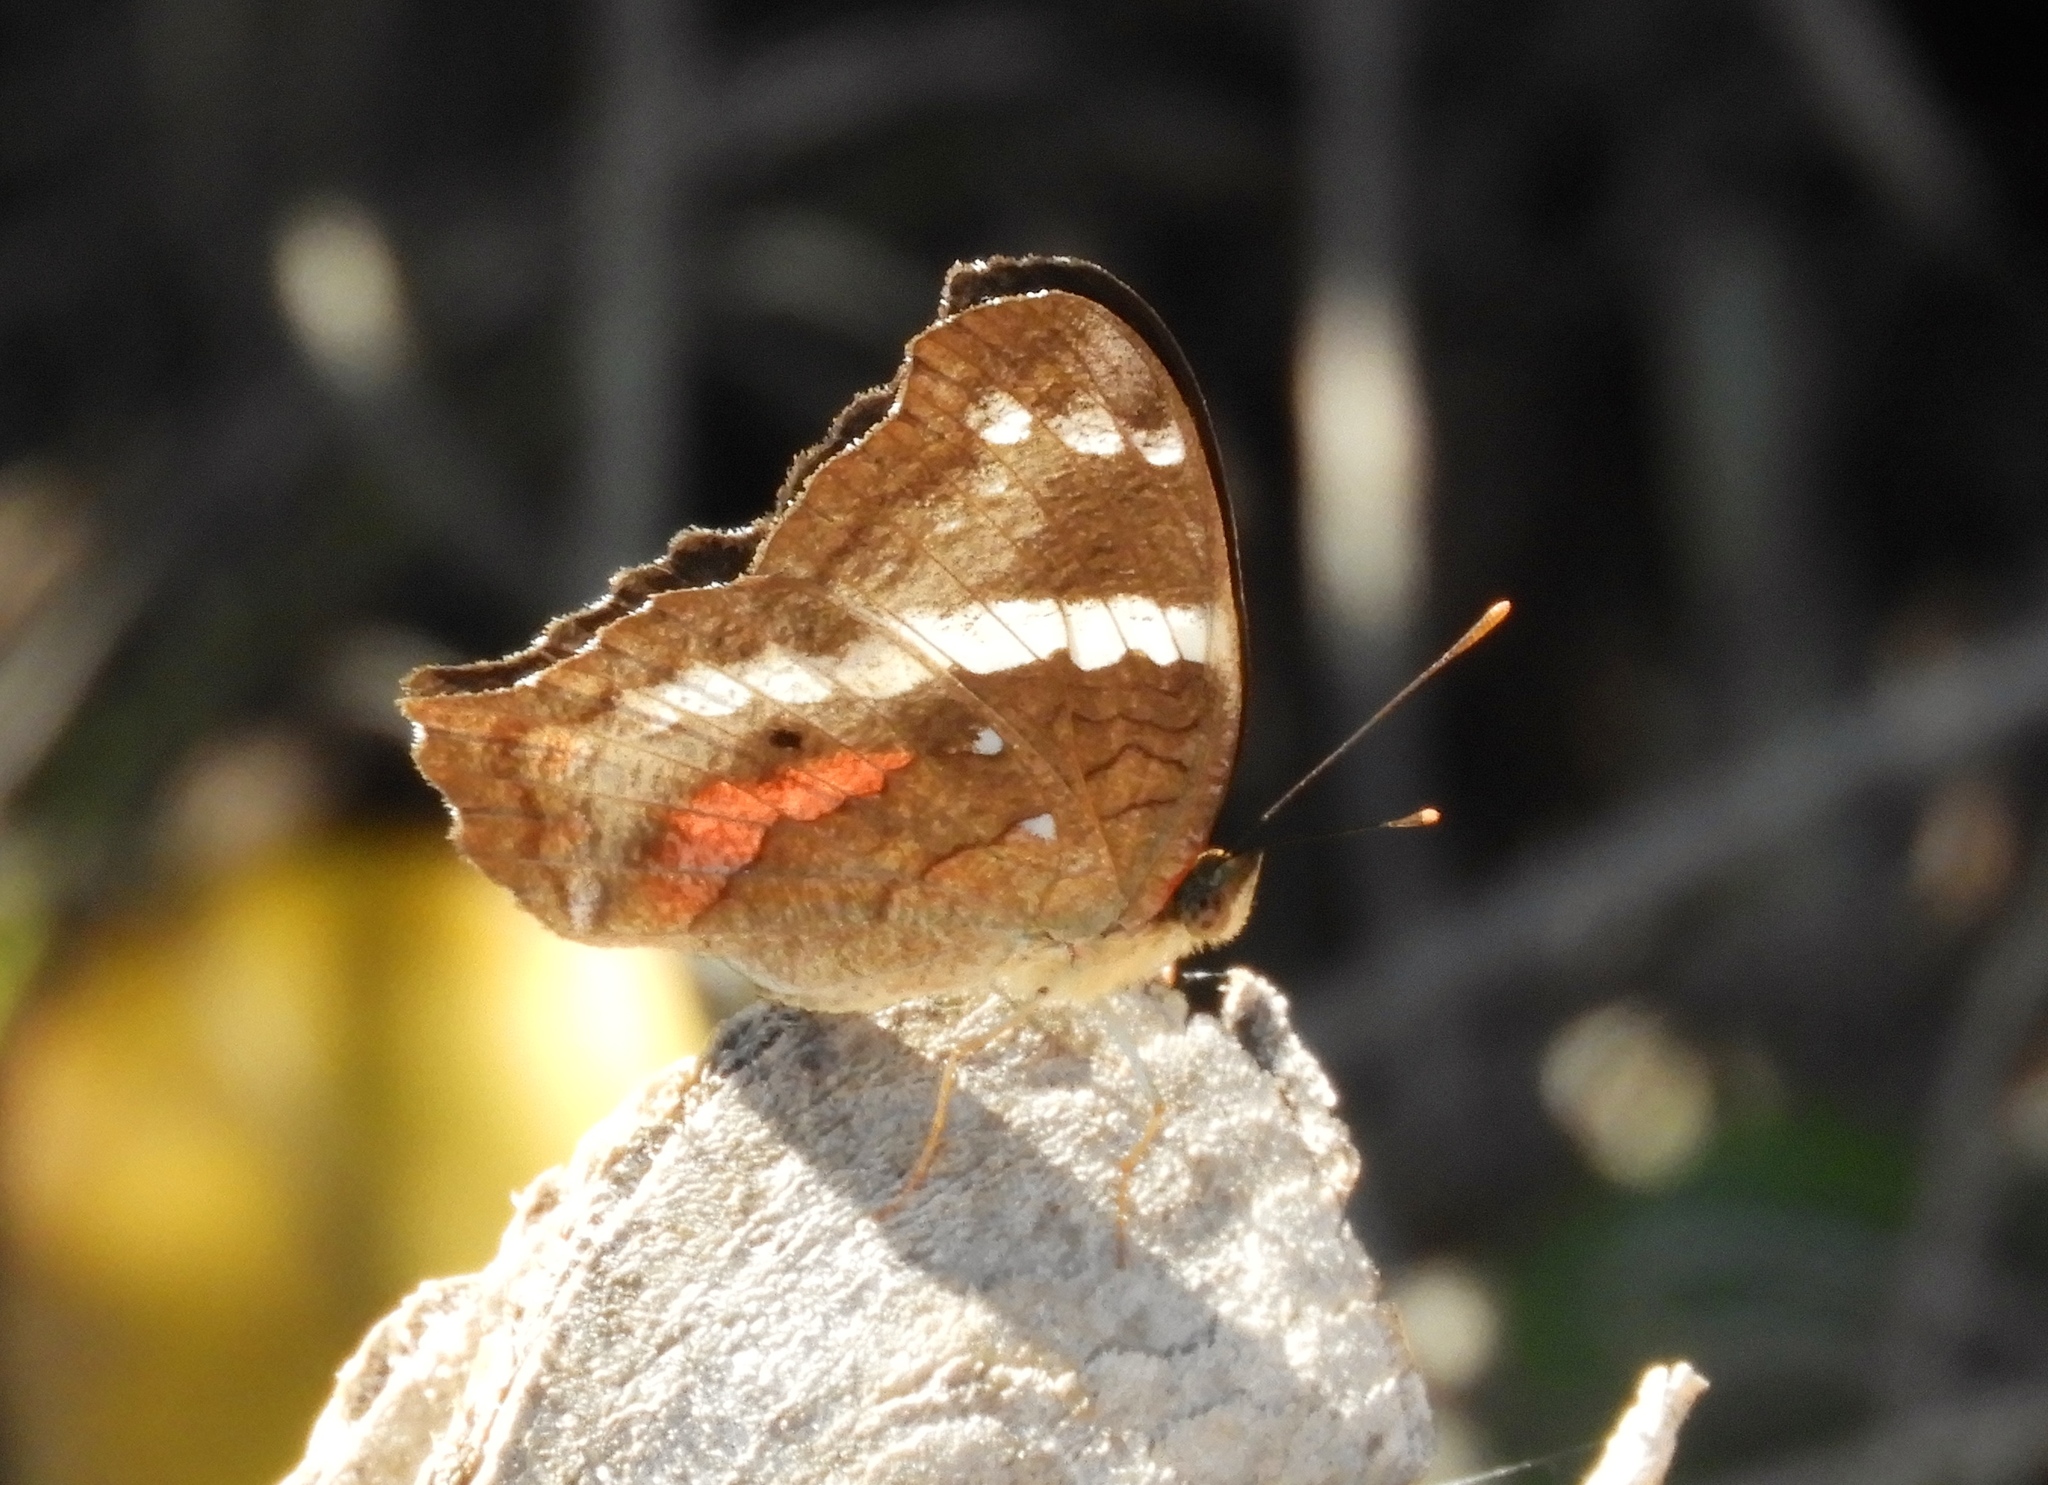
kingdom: Animalia
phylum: Arthropoda
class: Insecta
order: Lepidoptera
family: Nymphalidae
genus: Anartia
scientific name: Anartia fatima
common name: Banded peacock
